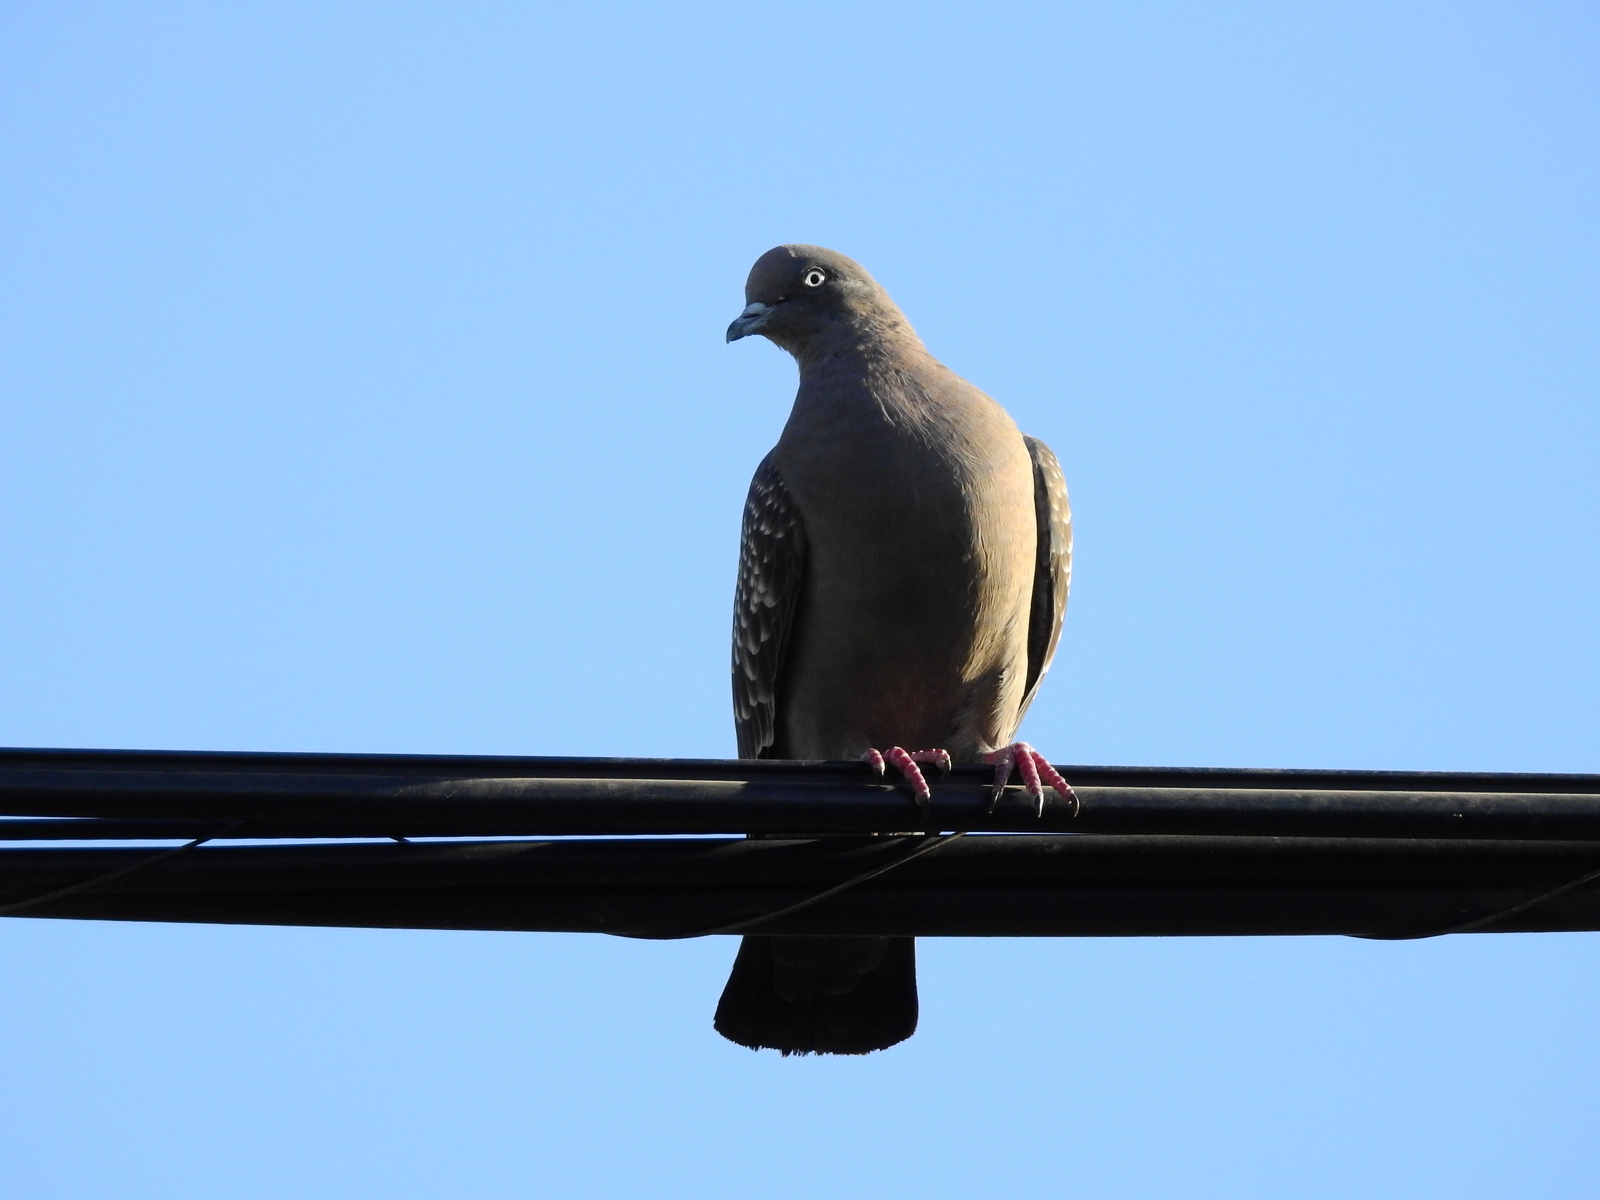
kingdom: Animalia
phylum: Chordata
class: Aves
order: Columbiformes
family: Columbidae
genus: Patagioenas
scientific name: Patagioenas maculosa
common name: Spot-winged pigeon
